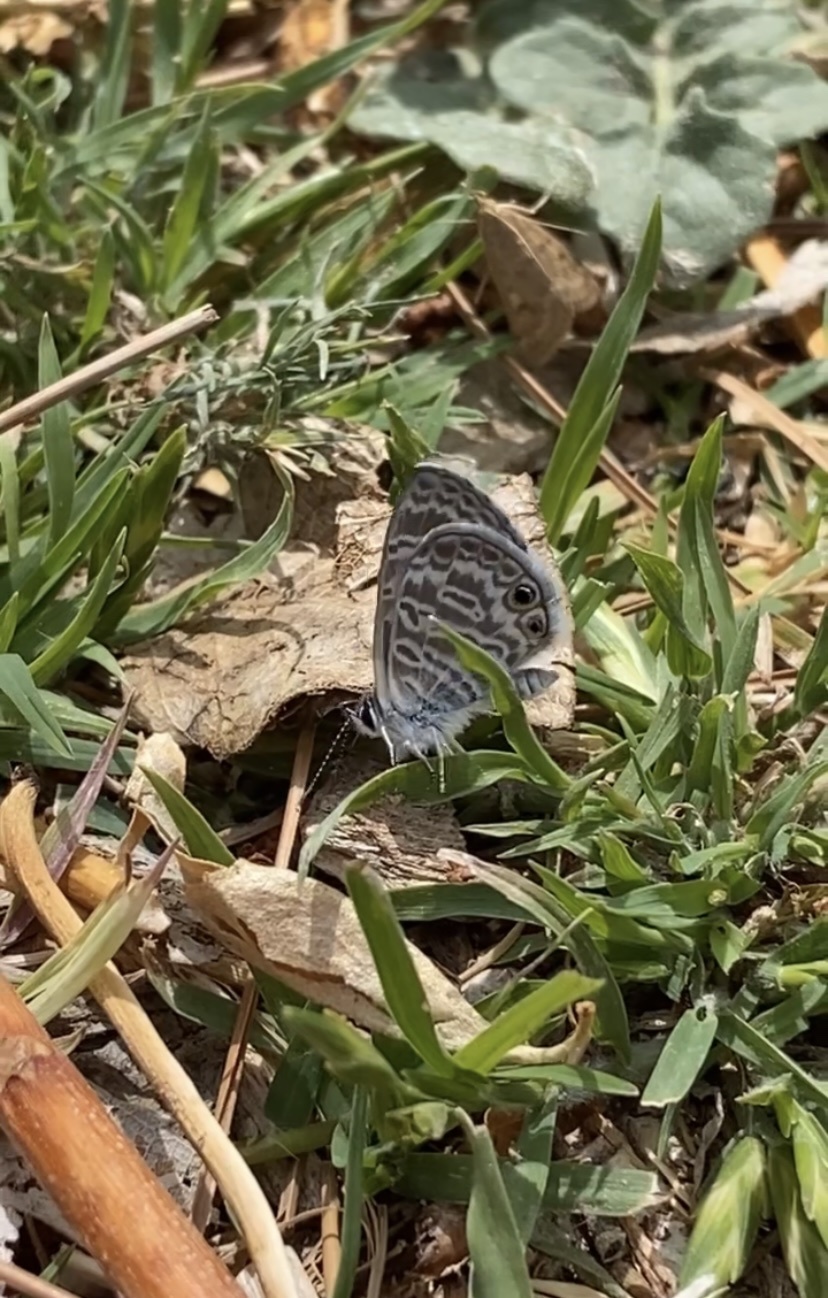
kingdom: Animalia
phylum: Arthropoda
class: Insecta
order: Lepidoptera
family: Lycaenidae
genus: Leptotes
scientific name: Leptotes marina
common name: Marine blue
